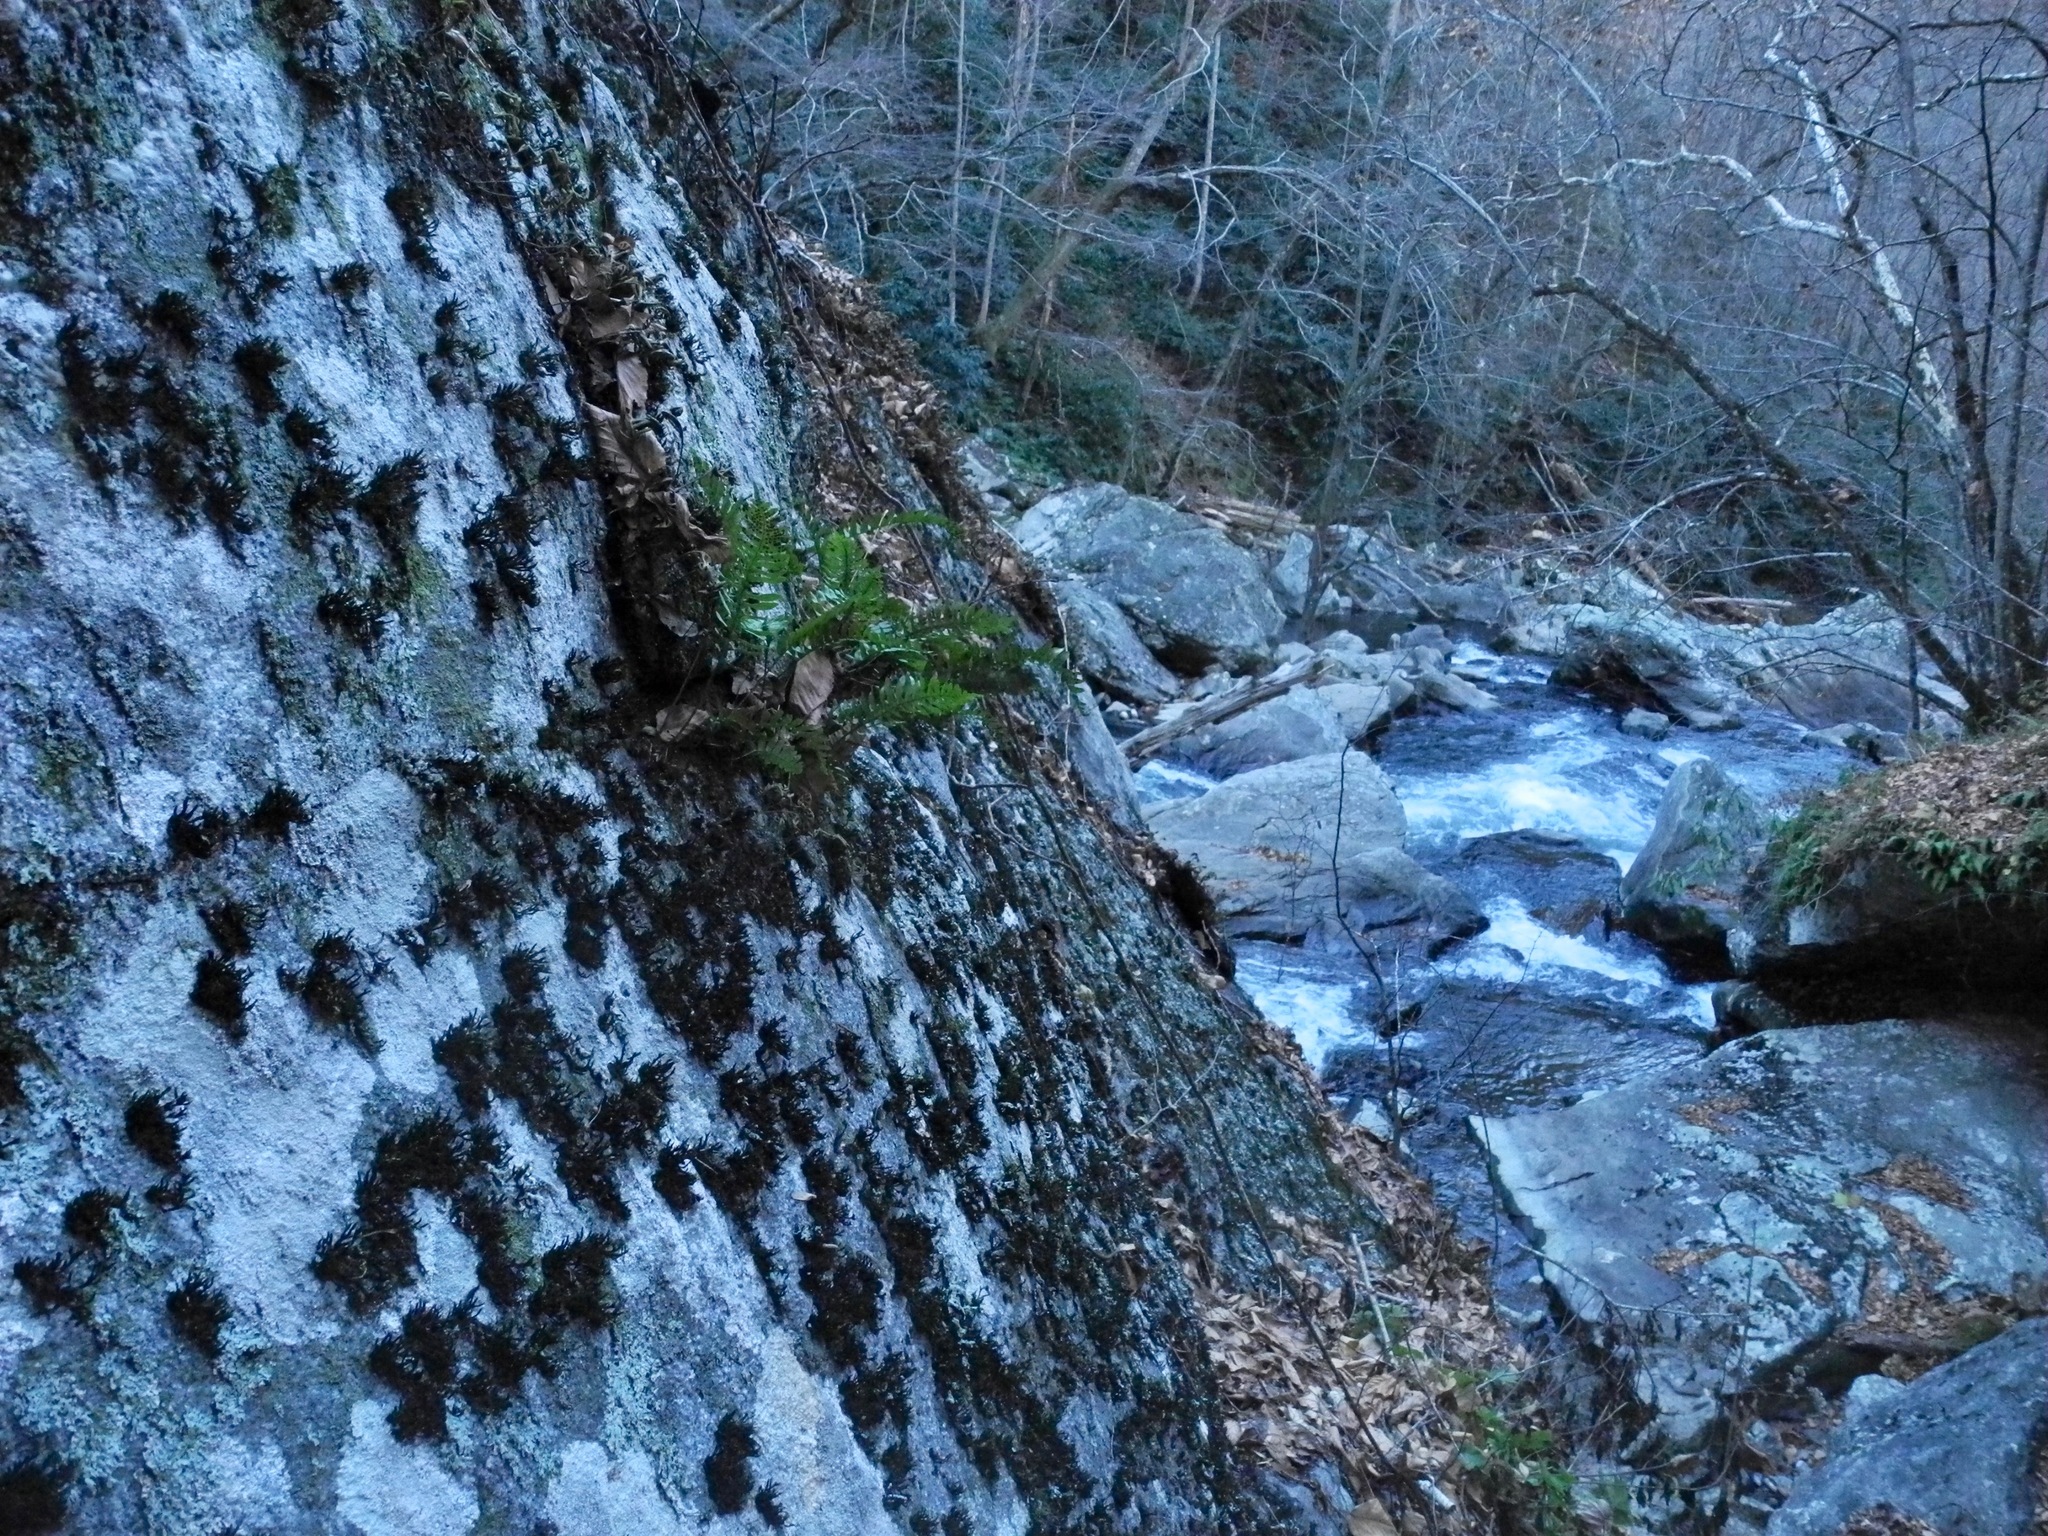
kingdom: Plantae
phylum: Tracheophyta
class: Polypodiopsida
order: Polypodiales
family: Polypodiaceae
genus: Polypodium
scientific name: Polypodium virginianum
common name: American wall fern
